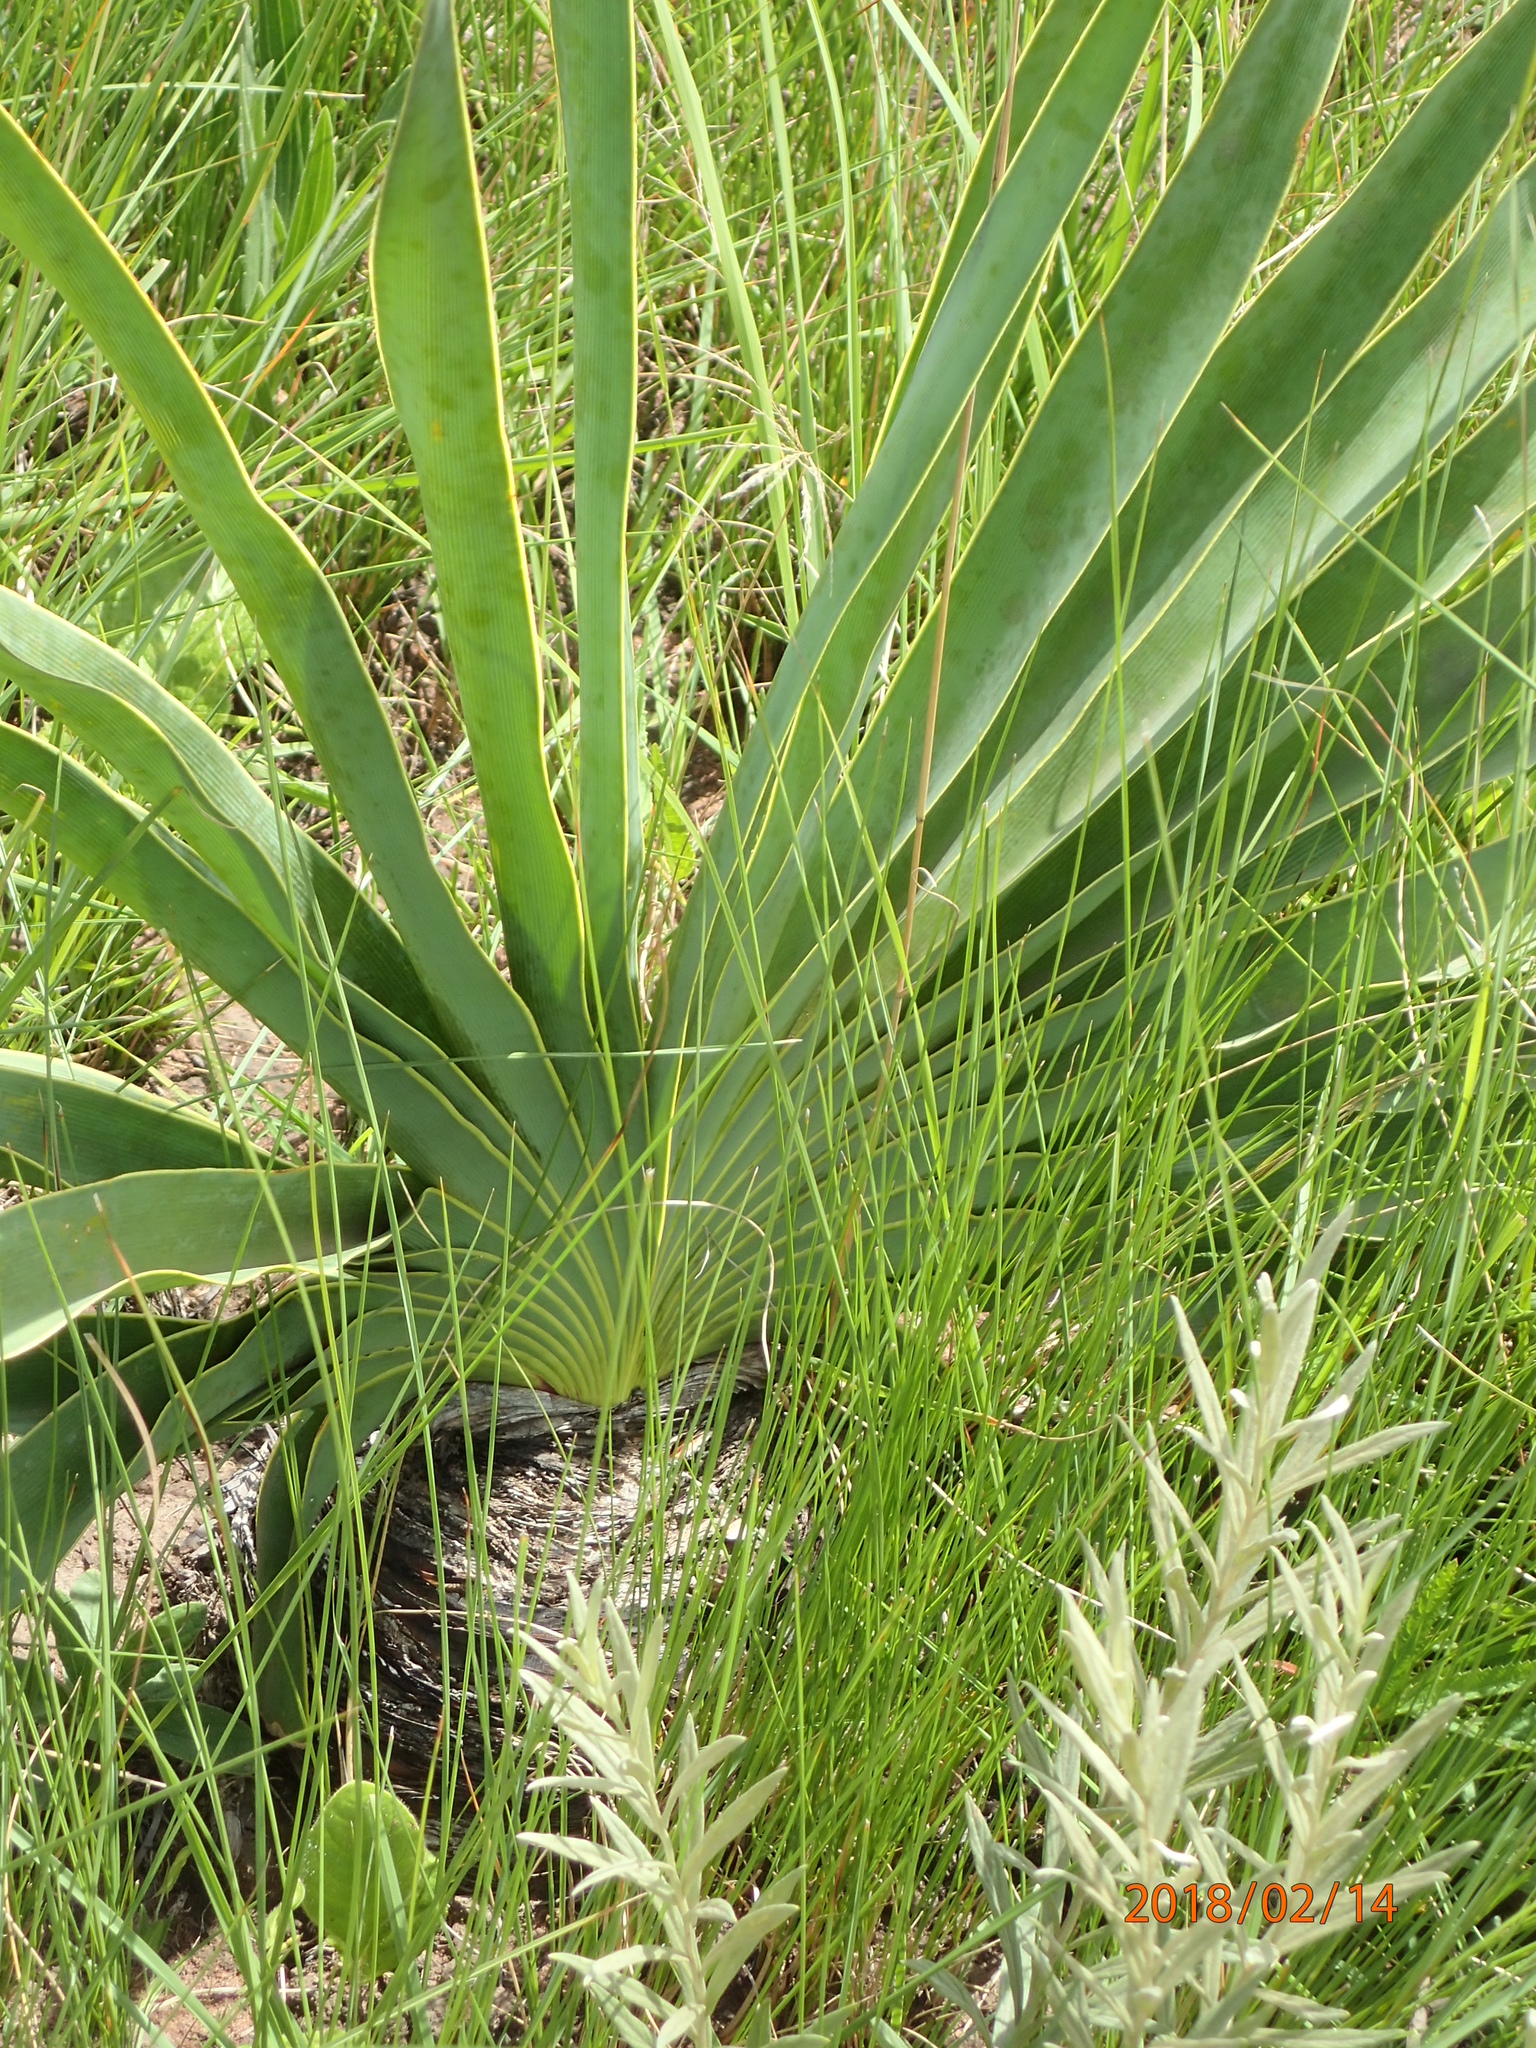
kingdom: Plantae
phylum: Tracheophyta
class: Liliopsida
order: Asparagales
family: Amaryllidaceae
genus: Boophone
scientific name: Boophone disticha
